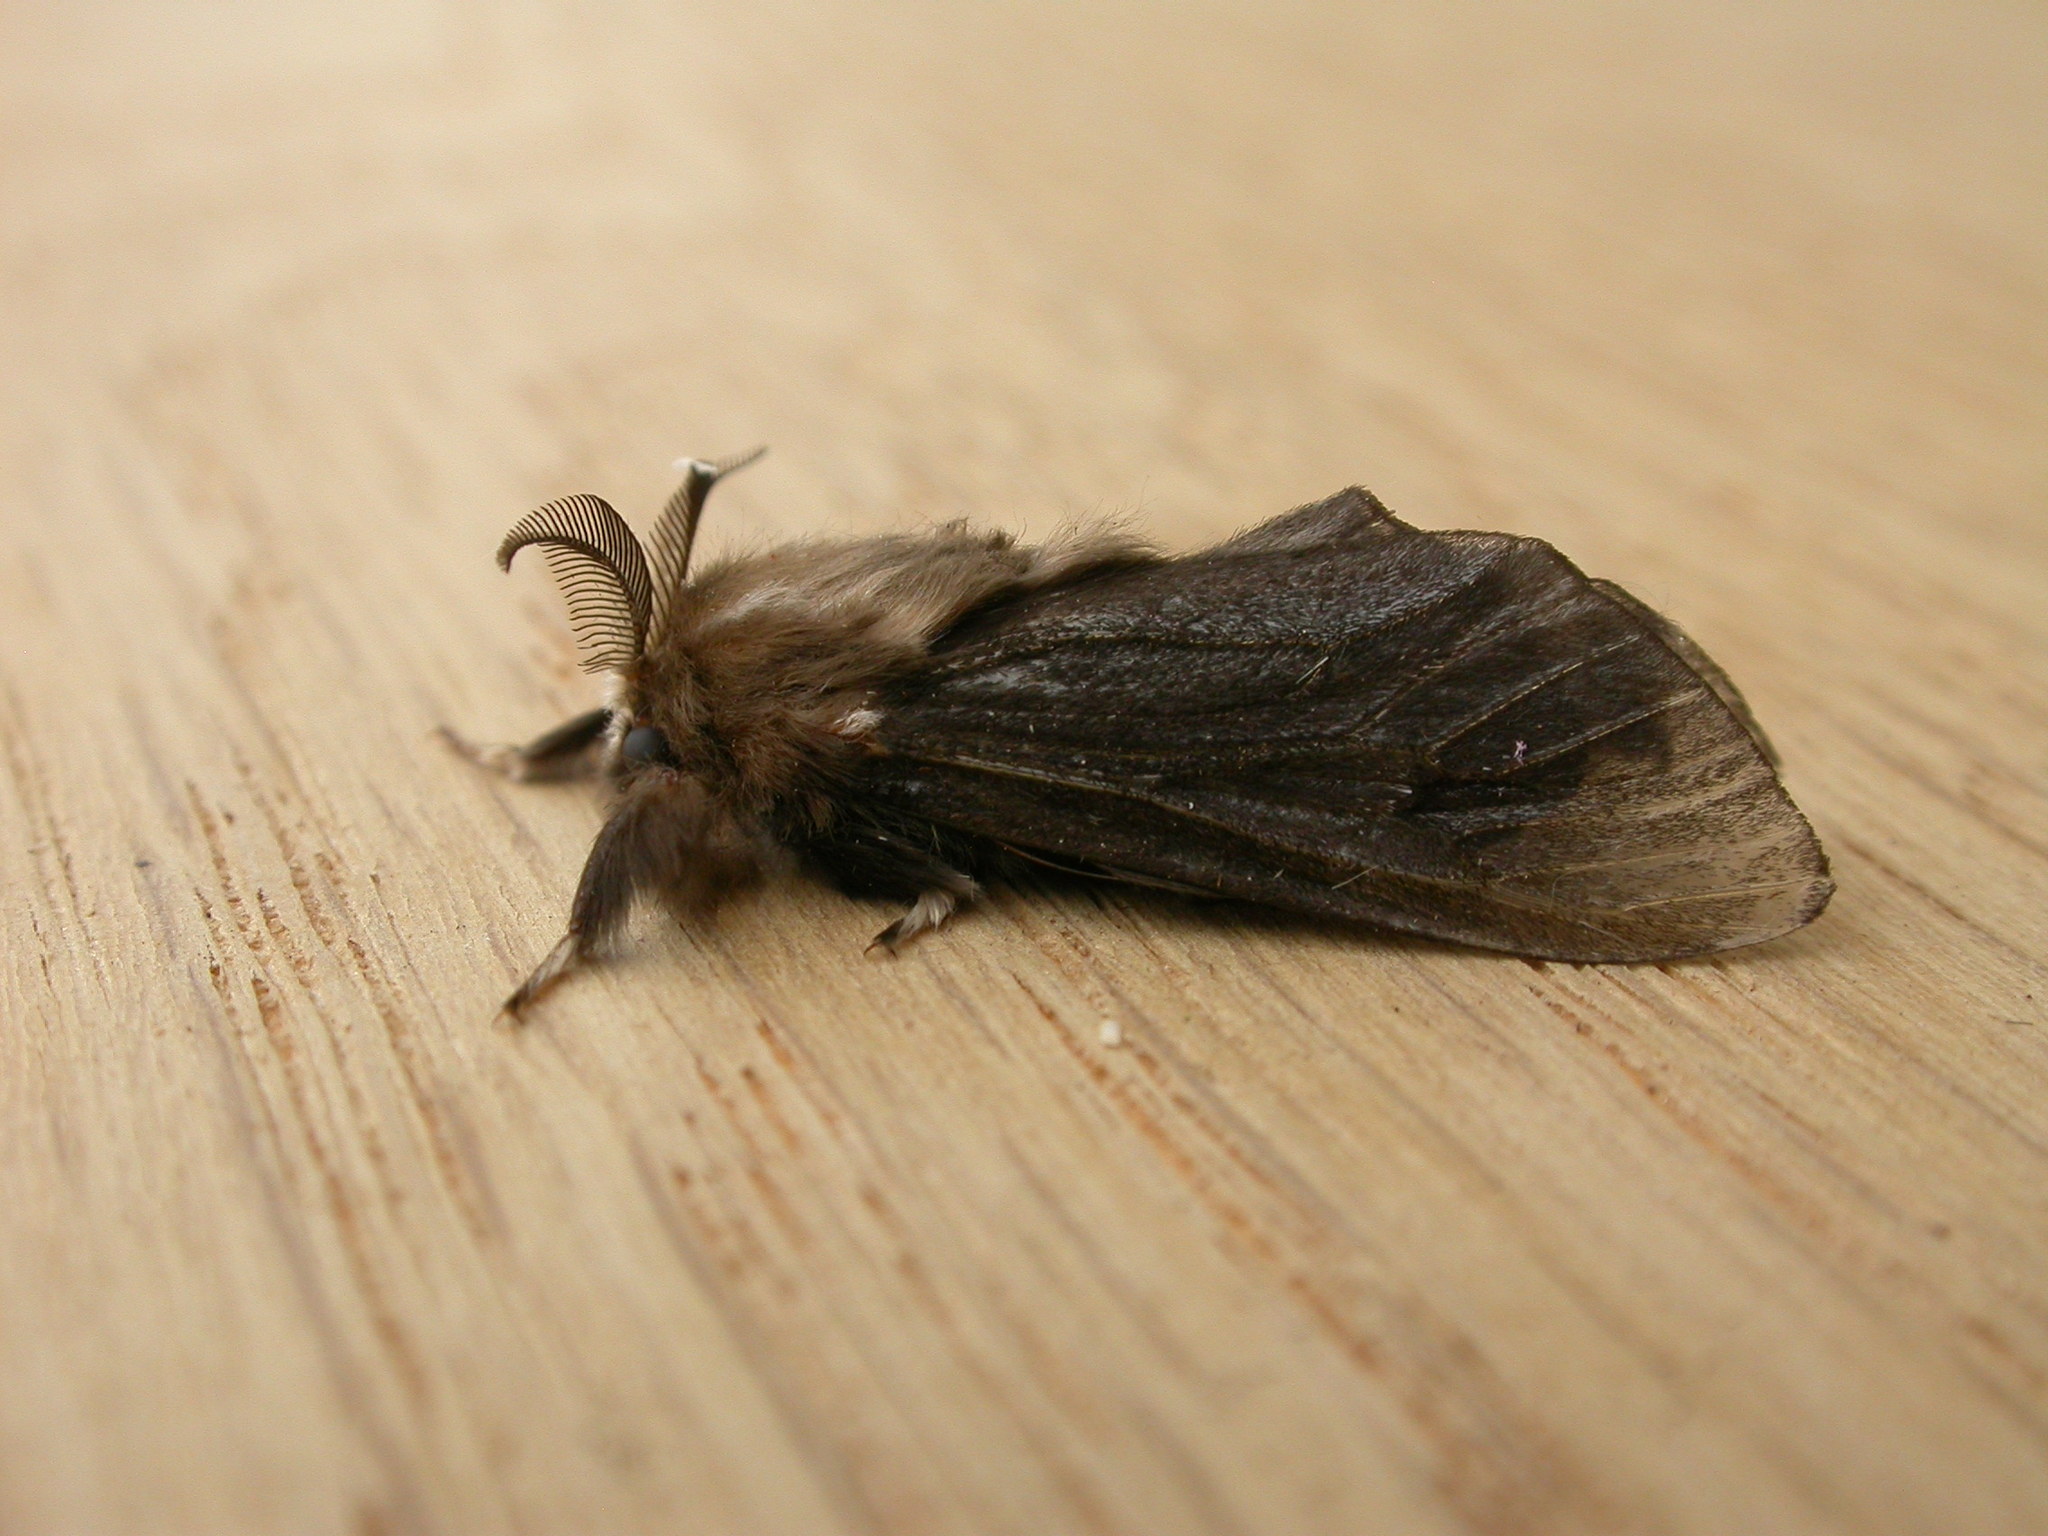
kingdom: Animalia
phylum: Arthropoda
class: Insecta
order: Lepidoptera
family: Psychidae
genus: Clania
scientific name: Clania ignobilis
